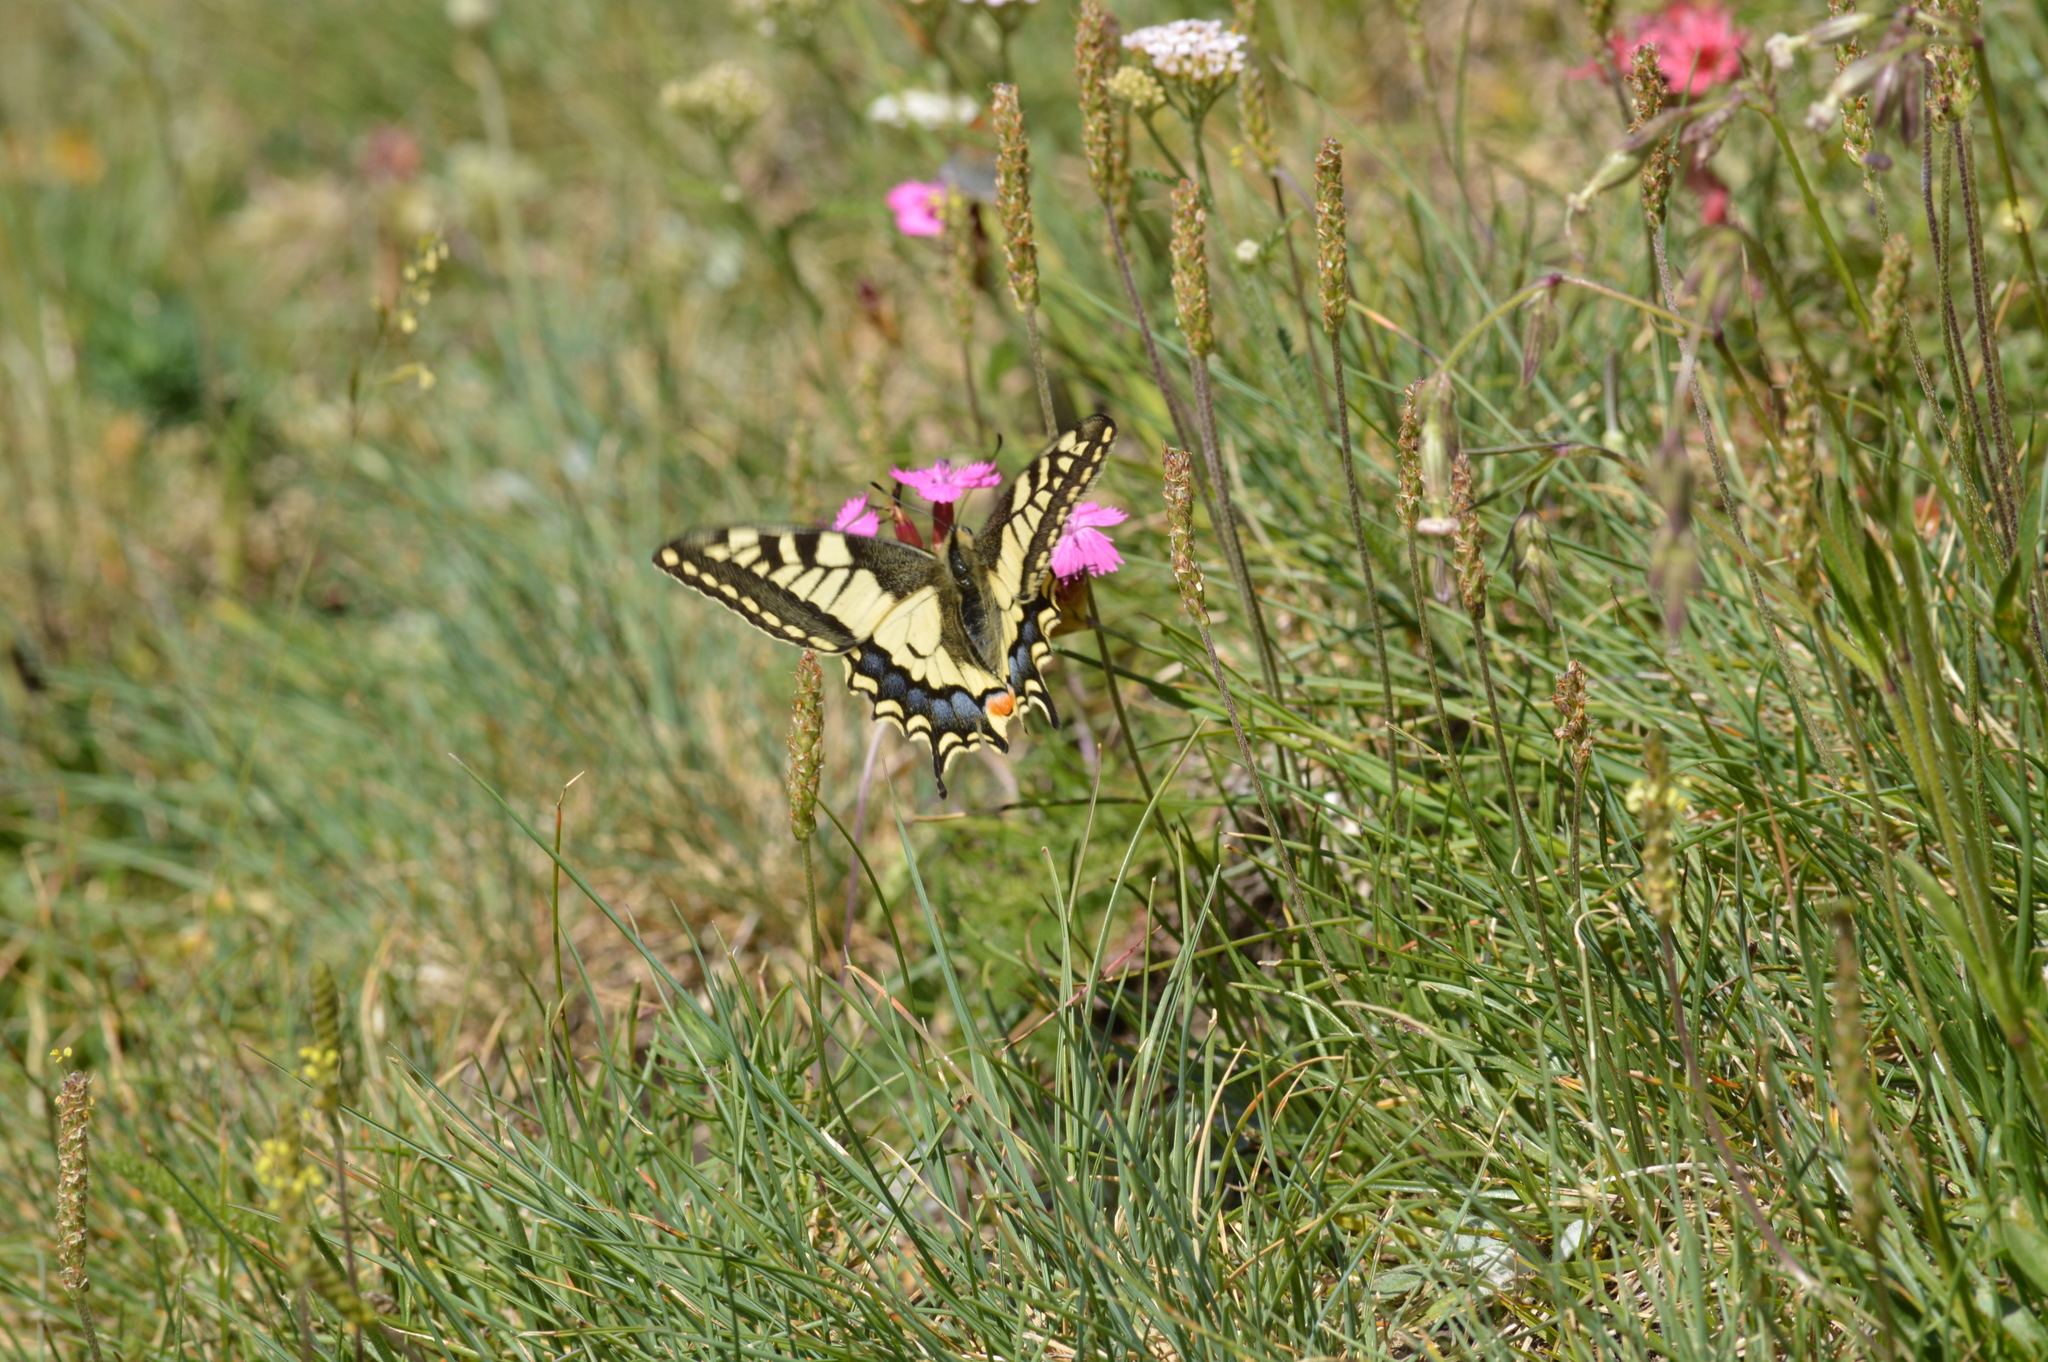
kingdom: Animalia
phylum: Arthropoda
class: Insecta
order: Lepidoptera
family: Papilionidae
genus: Papilio
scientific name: Papilio machaon
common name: Swallowtail
